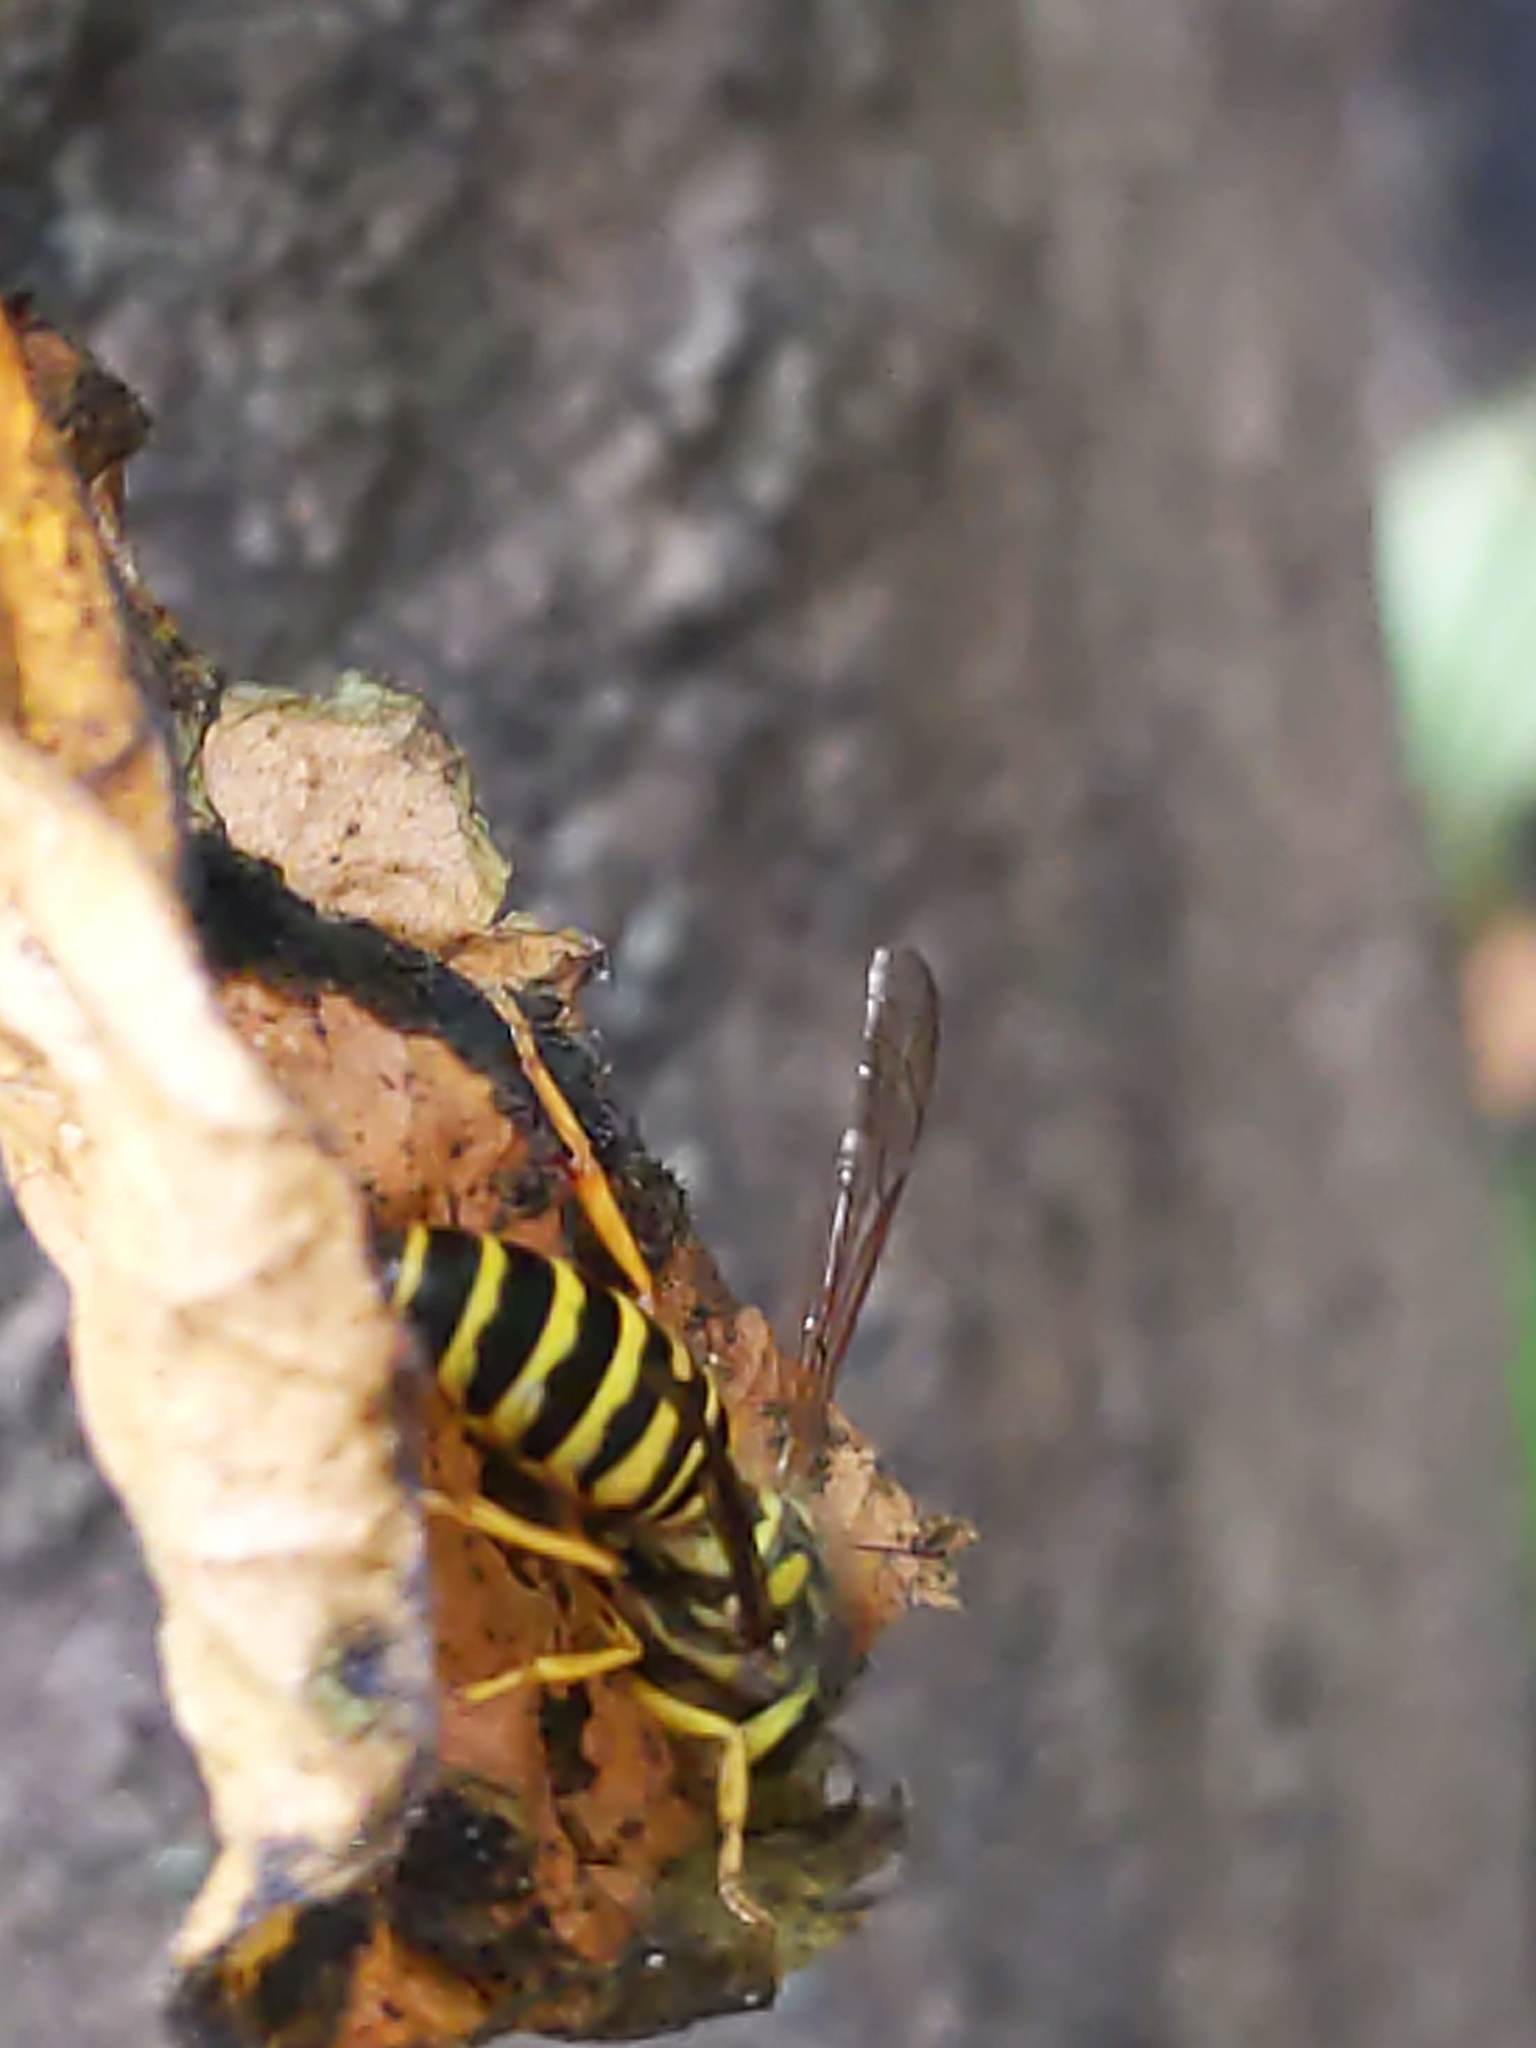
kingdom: Animalia
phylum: Arthropoda
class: Insecta
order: Hymenoptera
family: Vespidae
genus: Vespula
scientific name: Vespula squamosa
